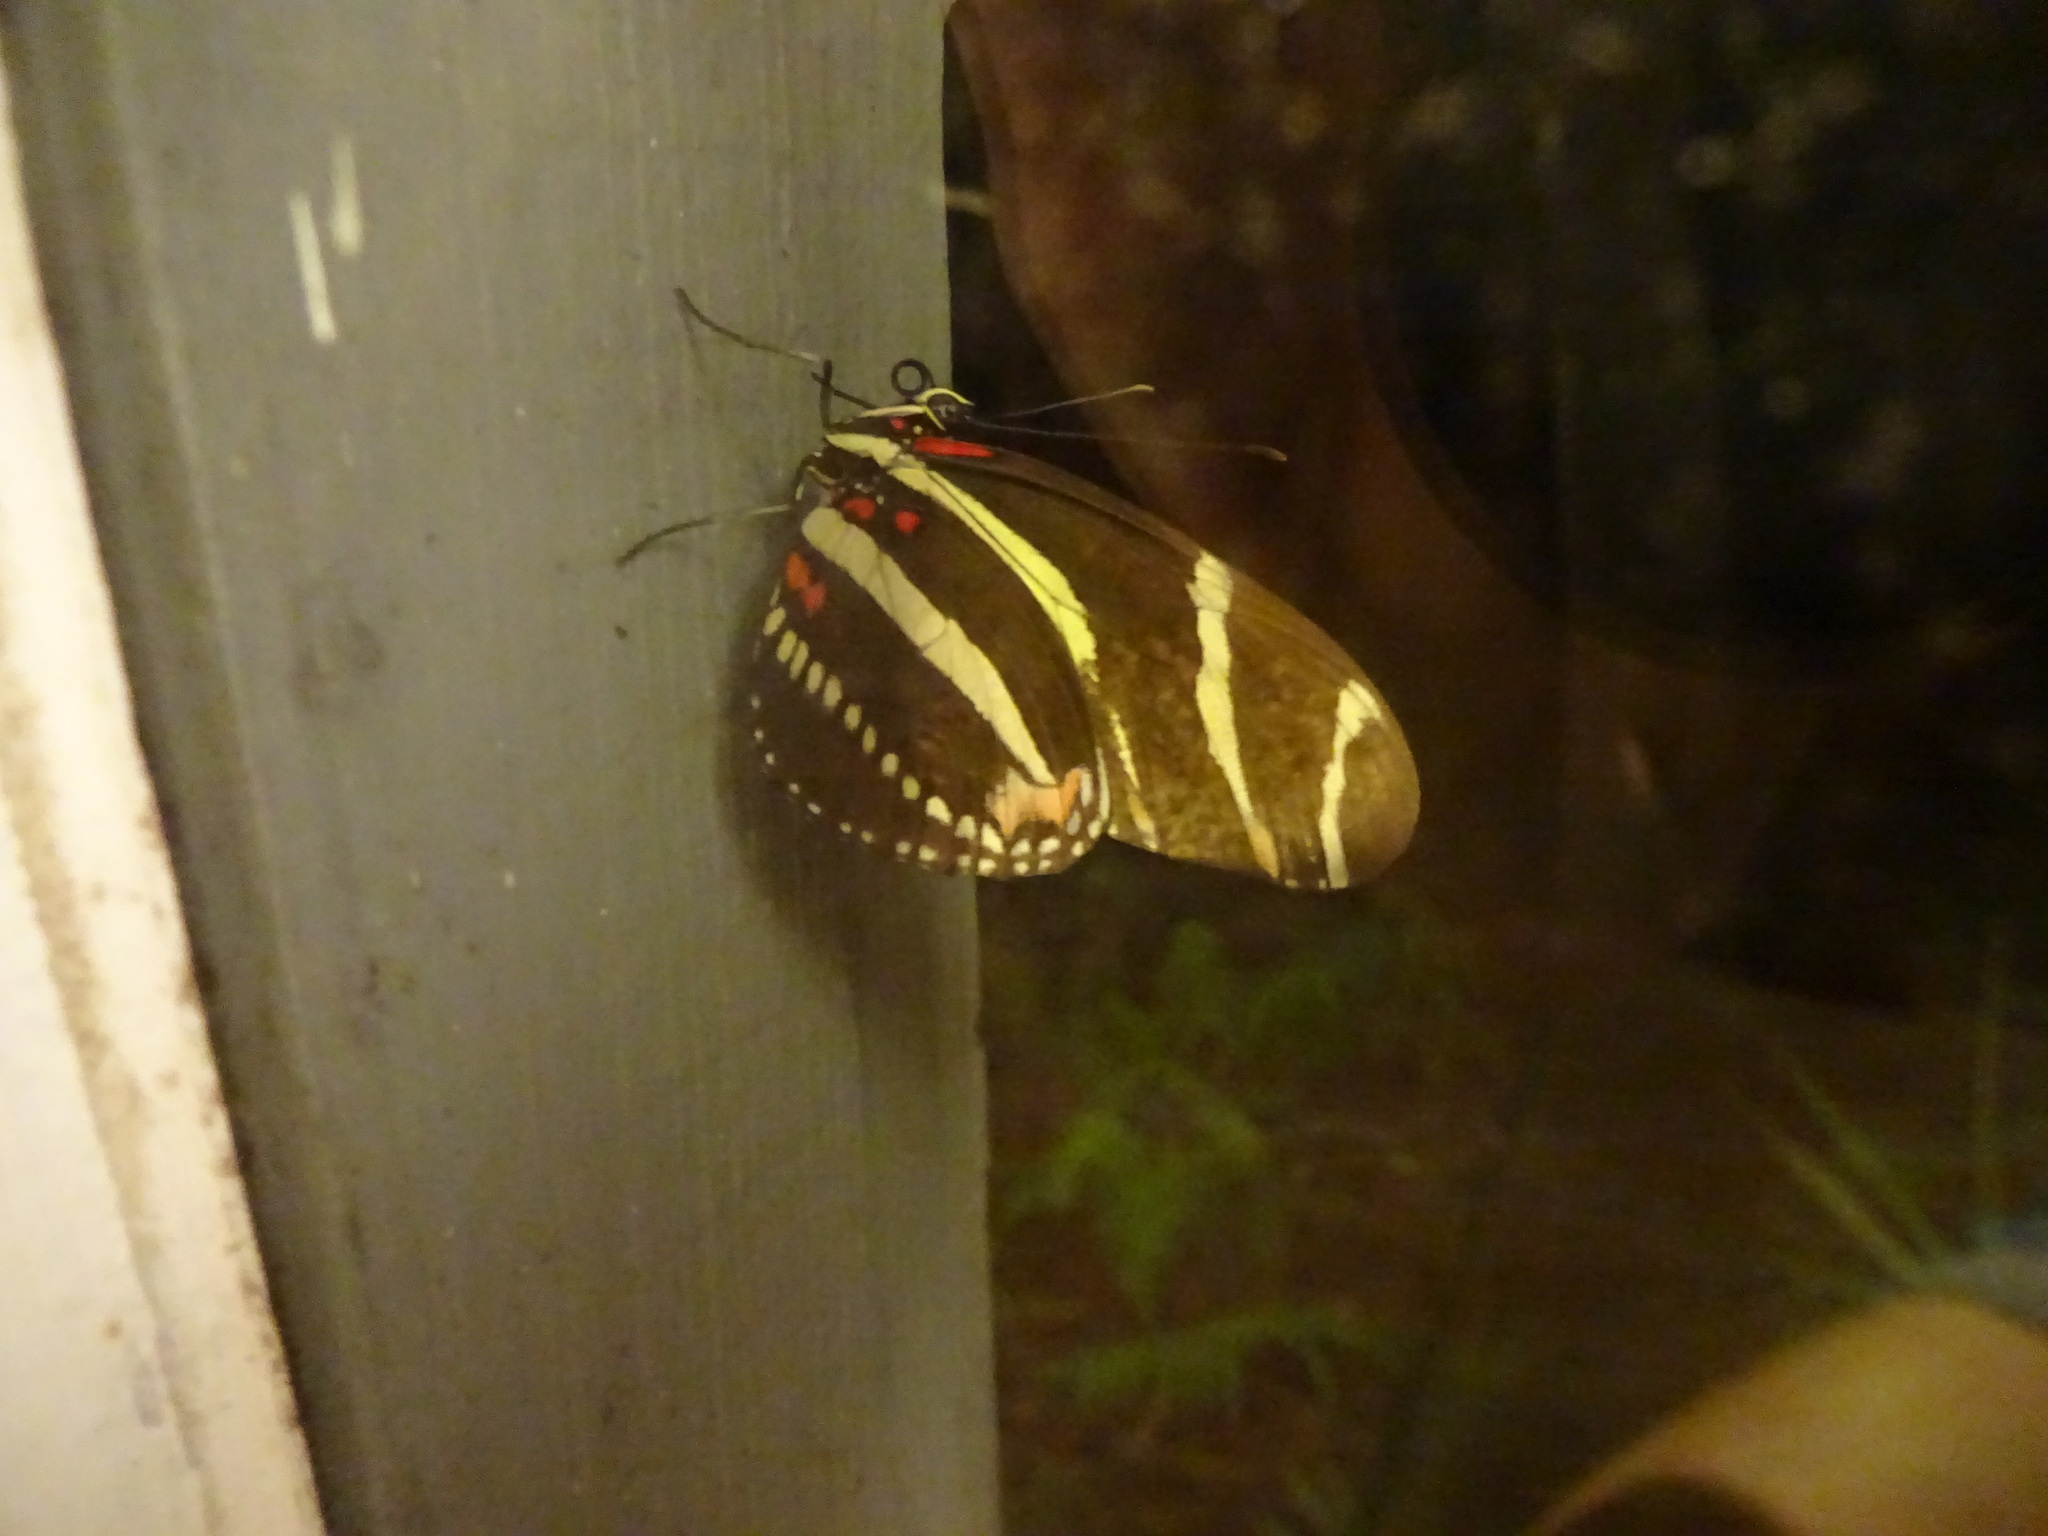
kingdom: Animalia
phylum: Arthropoda
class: Insecta
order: Lepidoptera
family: Nymphalidae
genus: Heliconius
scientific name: Heliconius charithonia
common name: Zebra long wing
